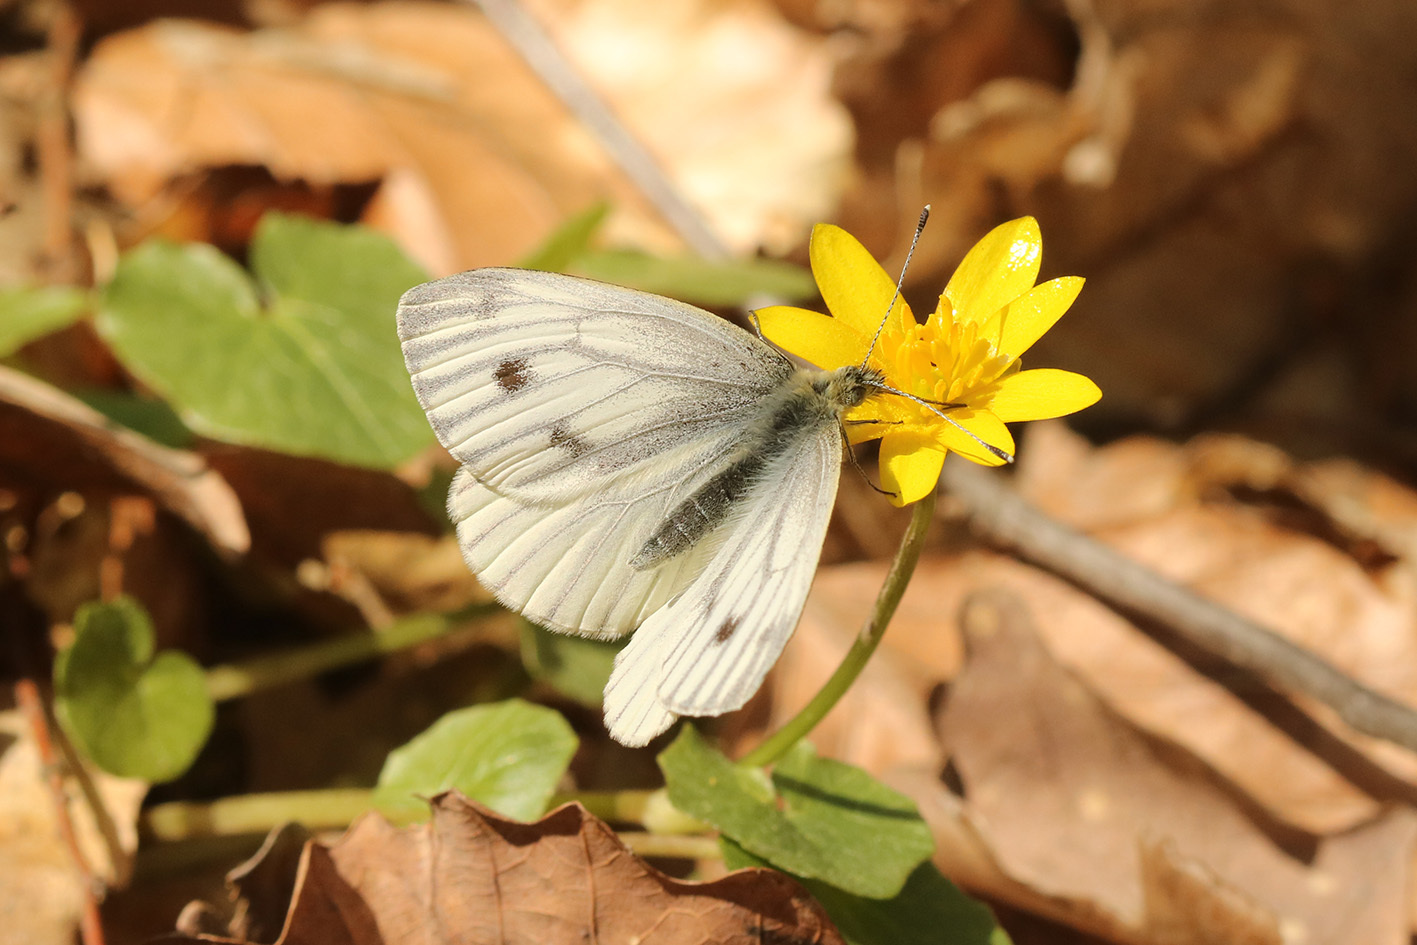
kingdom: Animalia
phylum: Arthropoda
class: Insecta
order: Lepidoptera
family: Pieridae
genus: Pieris
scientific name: Pieris napi
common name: Green-veined white
